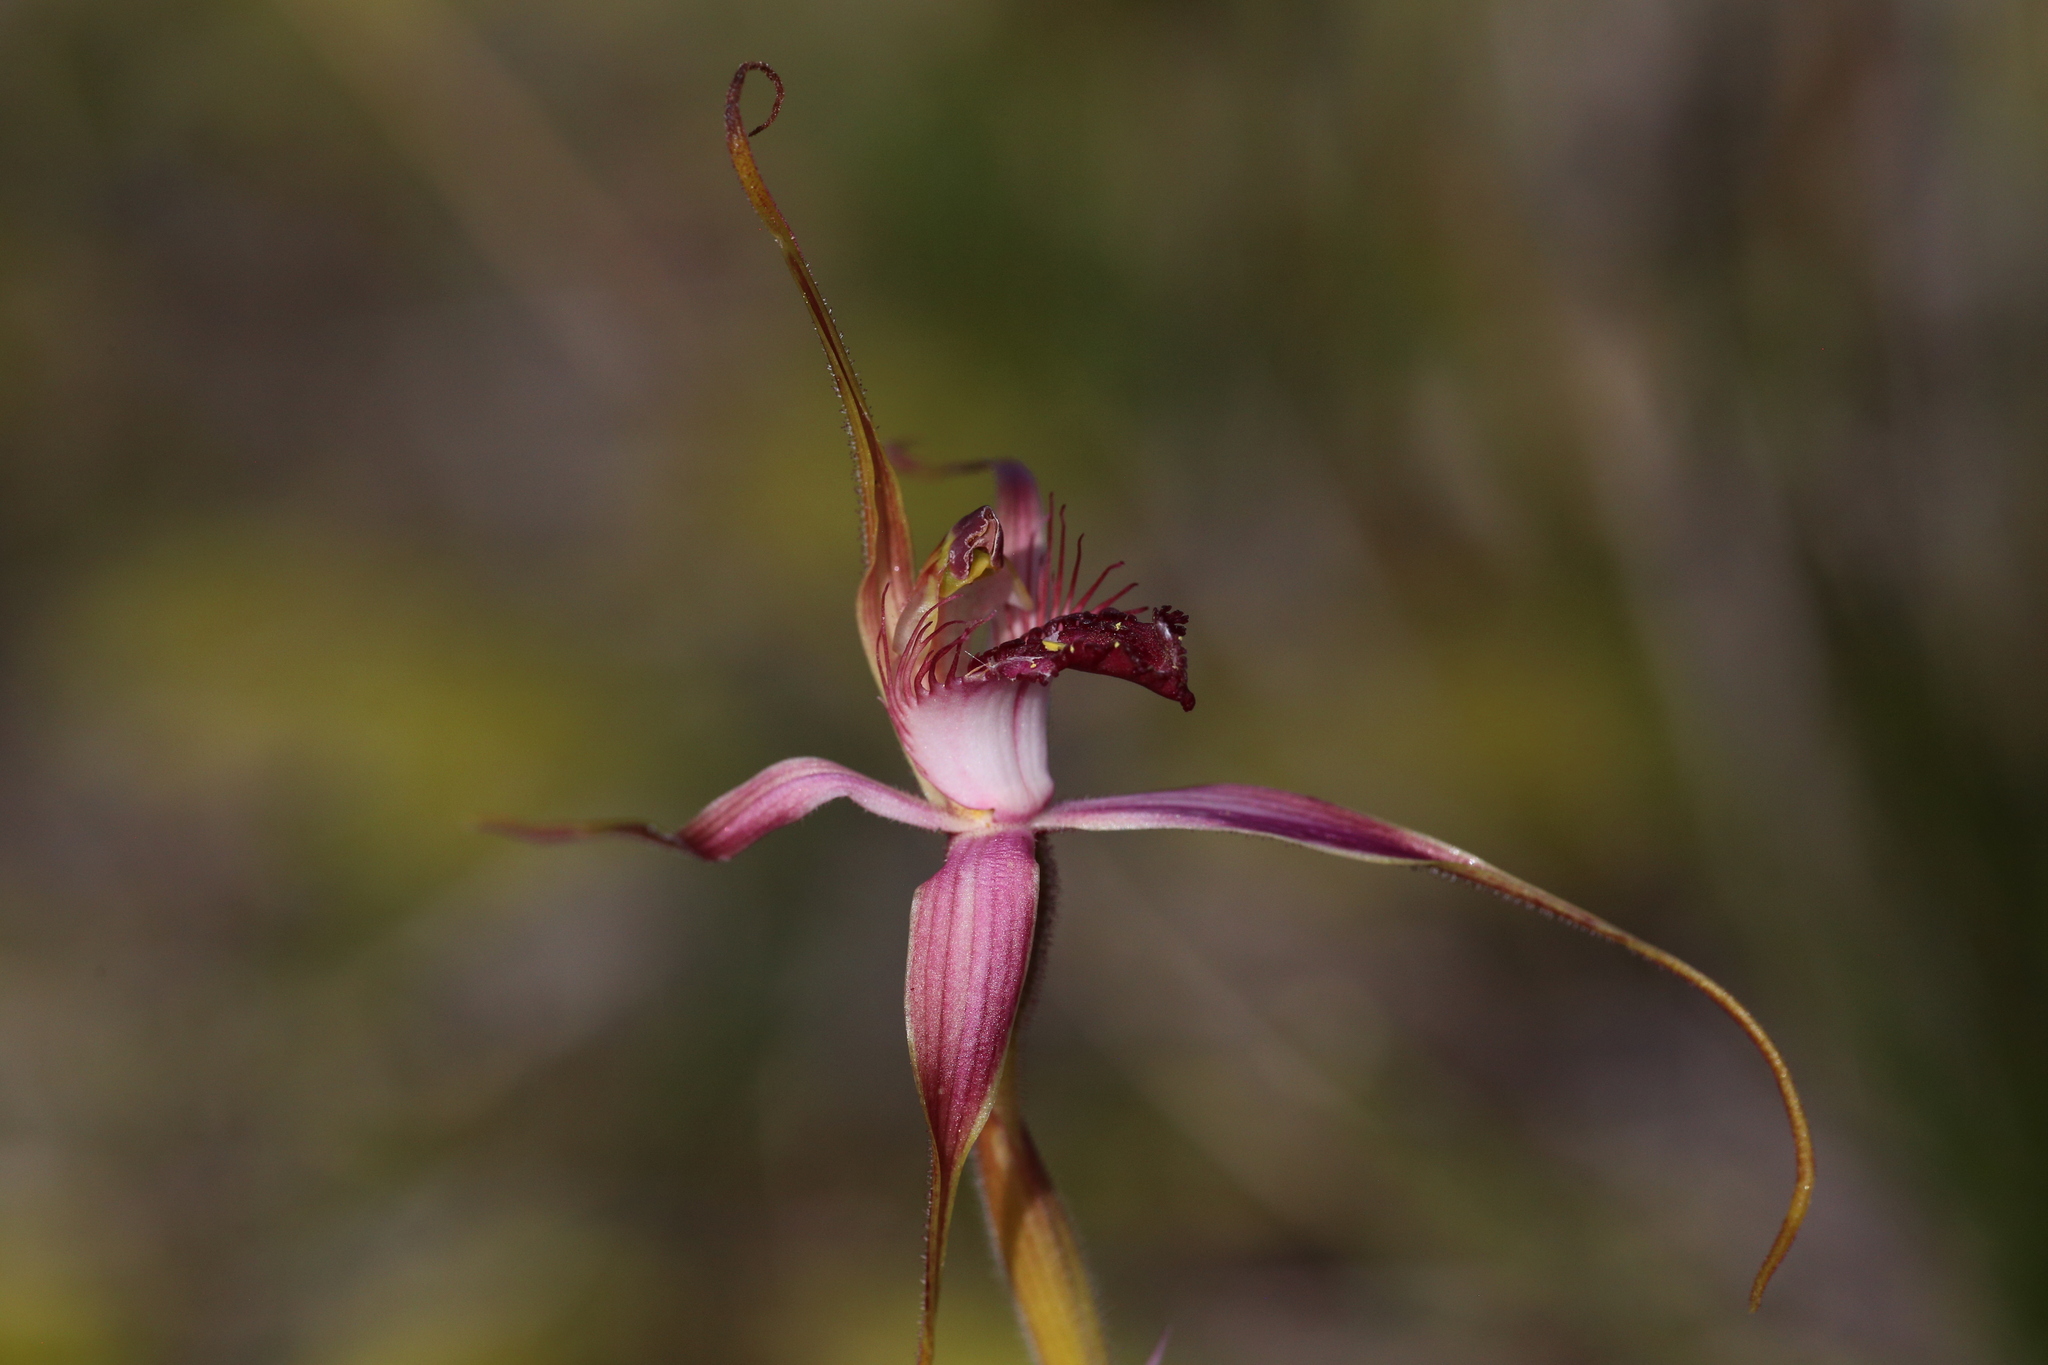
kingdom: Plantae
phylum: Tracheophyta
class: Liliopsida
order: Asparagales
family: Orchidaceae
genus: Caladenia
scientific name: Caladenia decora
